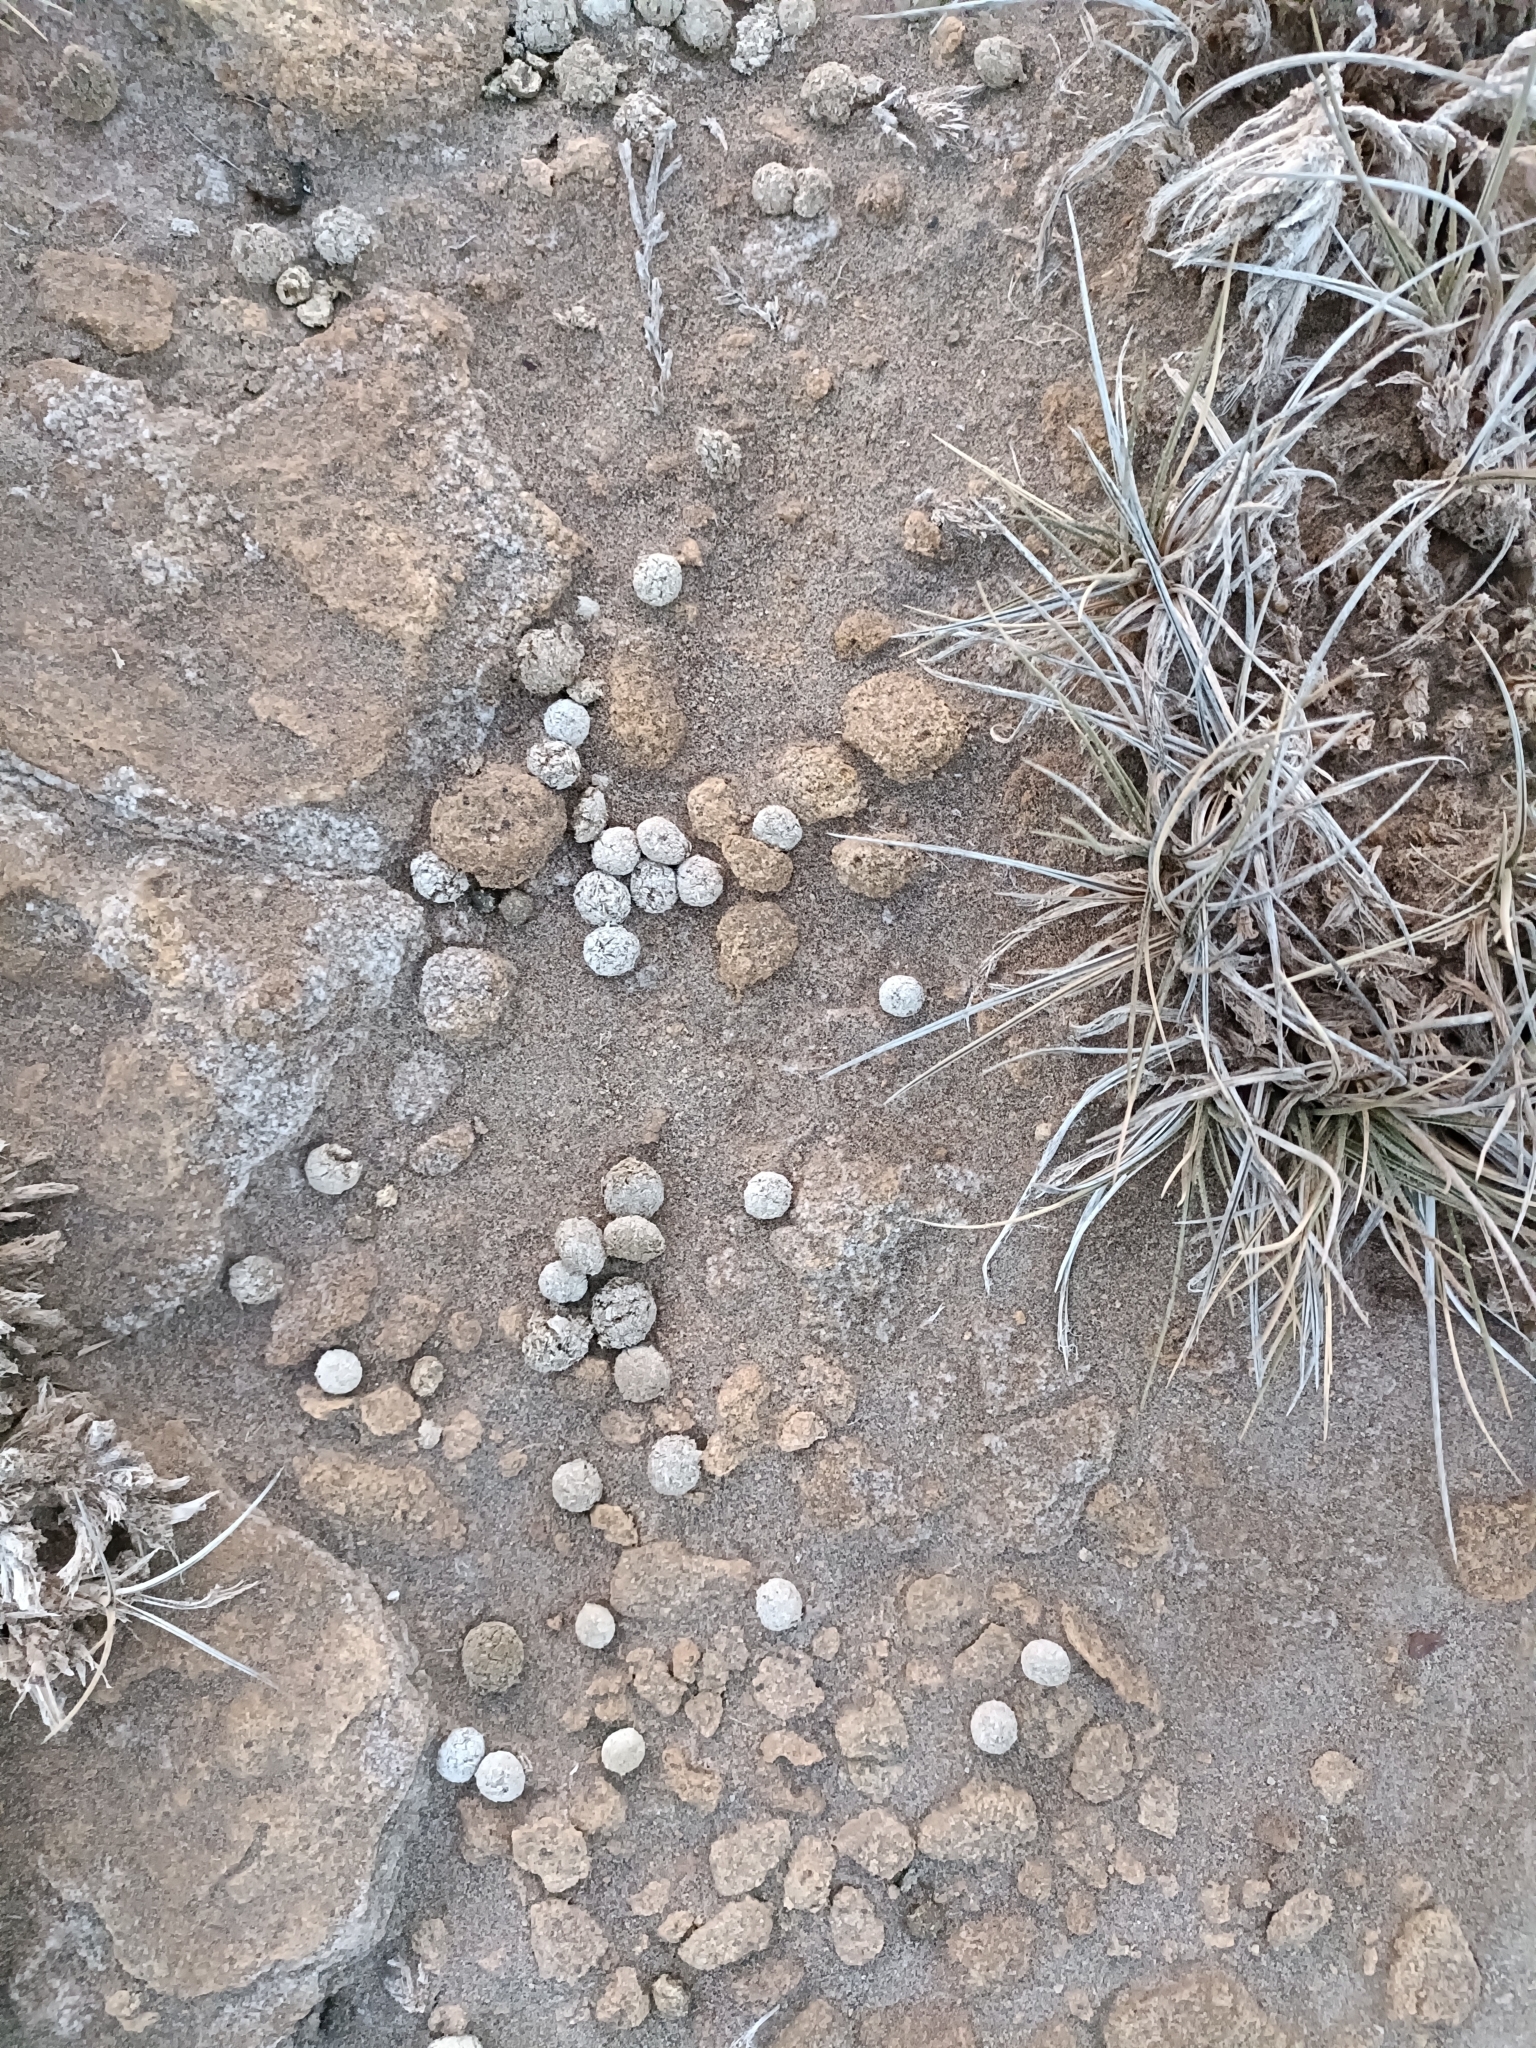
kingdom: Animalia
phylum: Chordata
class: Mammalia
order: Lagomorpha
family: Leporidae
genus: Lepus
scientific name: Lepus nigricollis
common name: Indian hare
